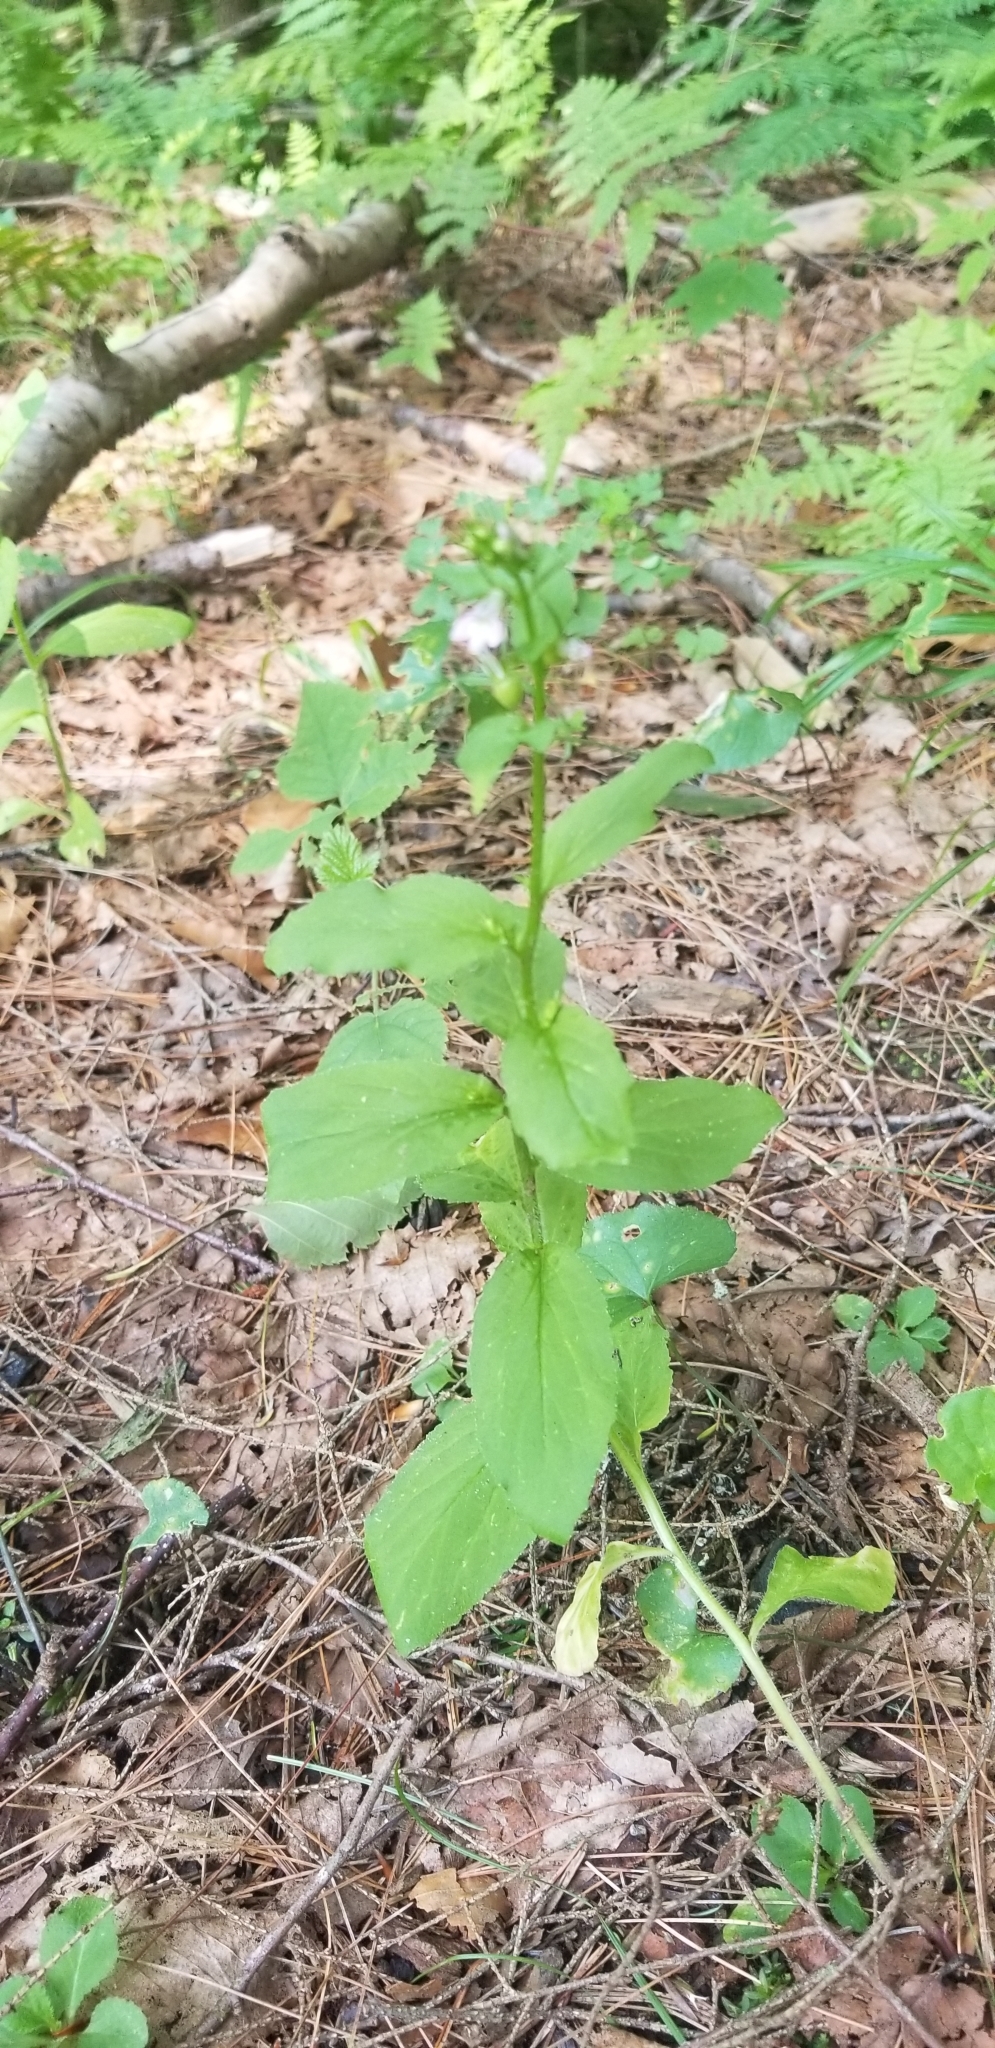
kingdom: Plantae
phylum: Tracheophyta
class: Magnoliopsida
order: Asterales
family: Campanulaceae
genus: Lobelia
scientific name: Lobelia inflata
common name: Indian tobacco
